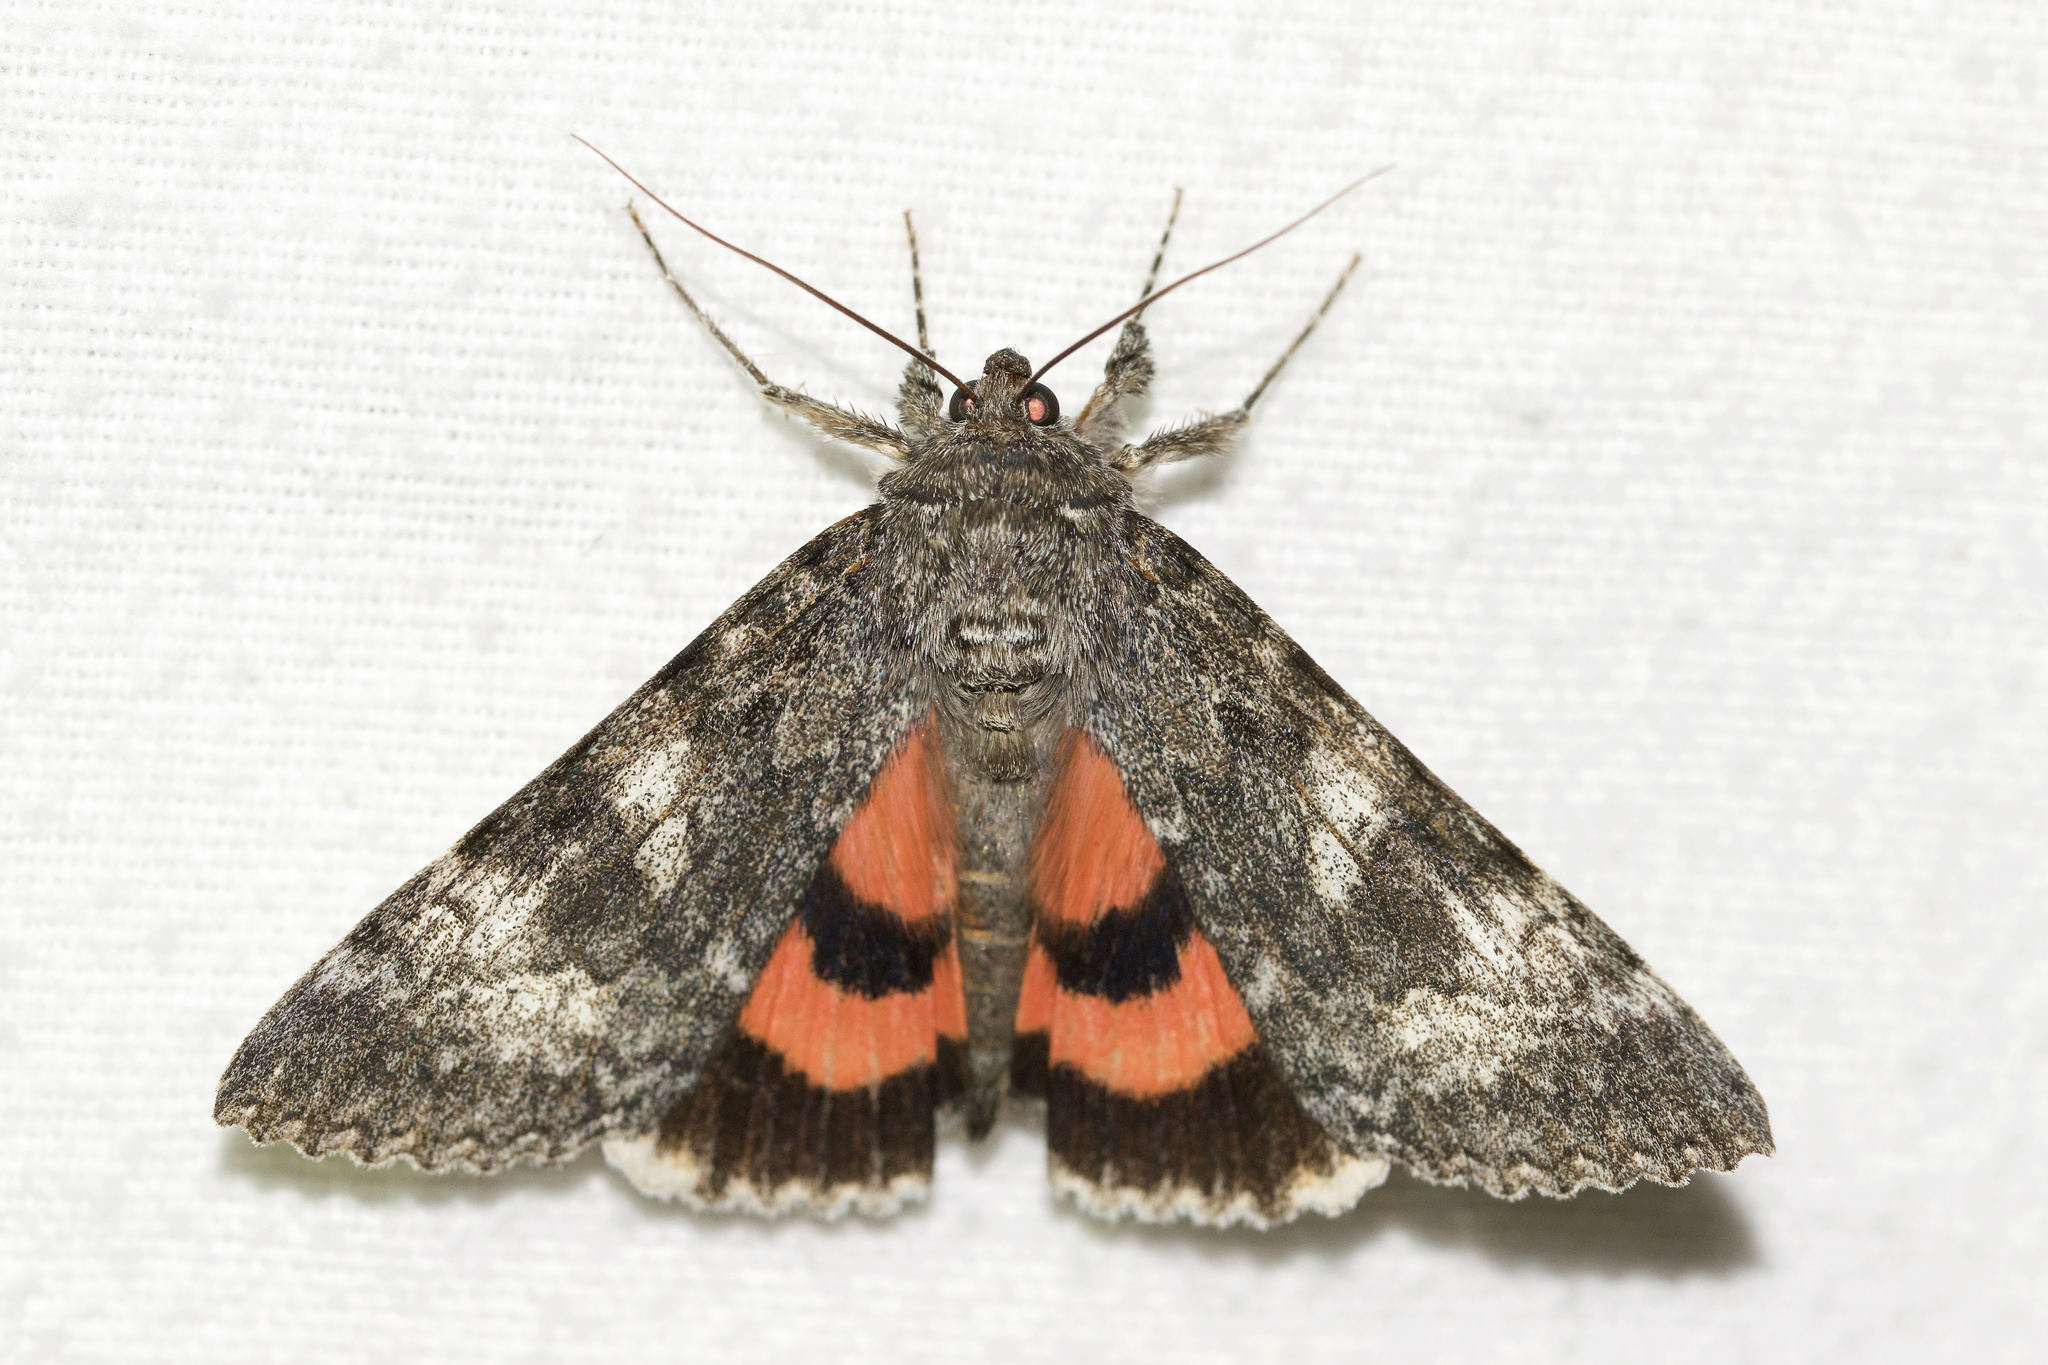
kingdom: Animalia
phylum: Arthropoda
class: Insecta
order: Lepidoptera
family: Erebidae
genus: Catocala
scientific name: Catocala briseis
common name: Briseis underwing
